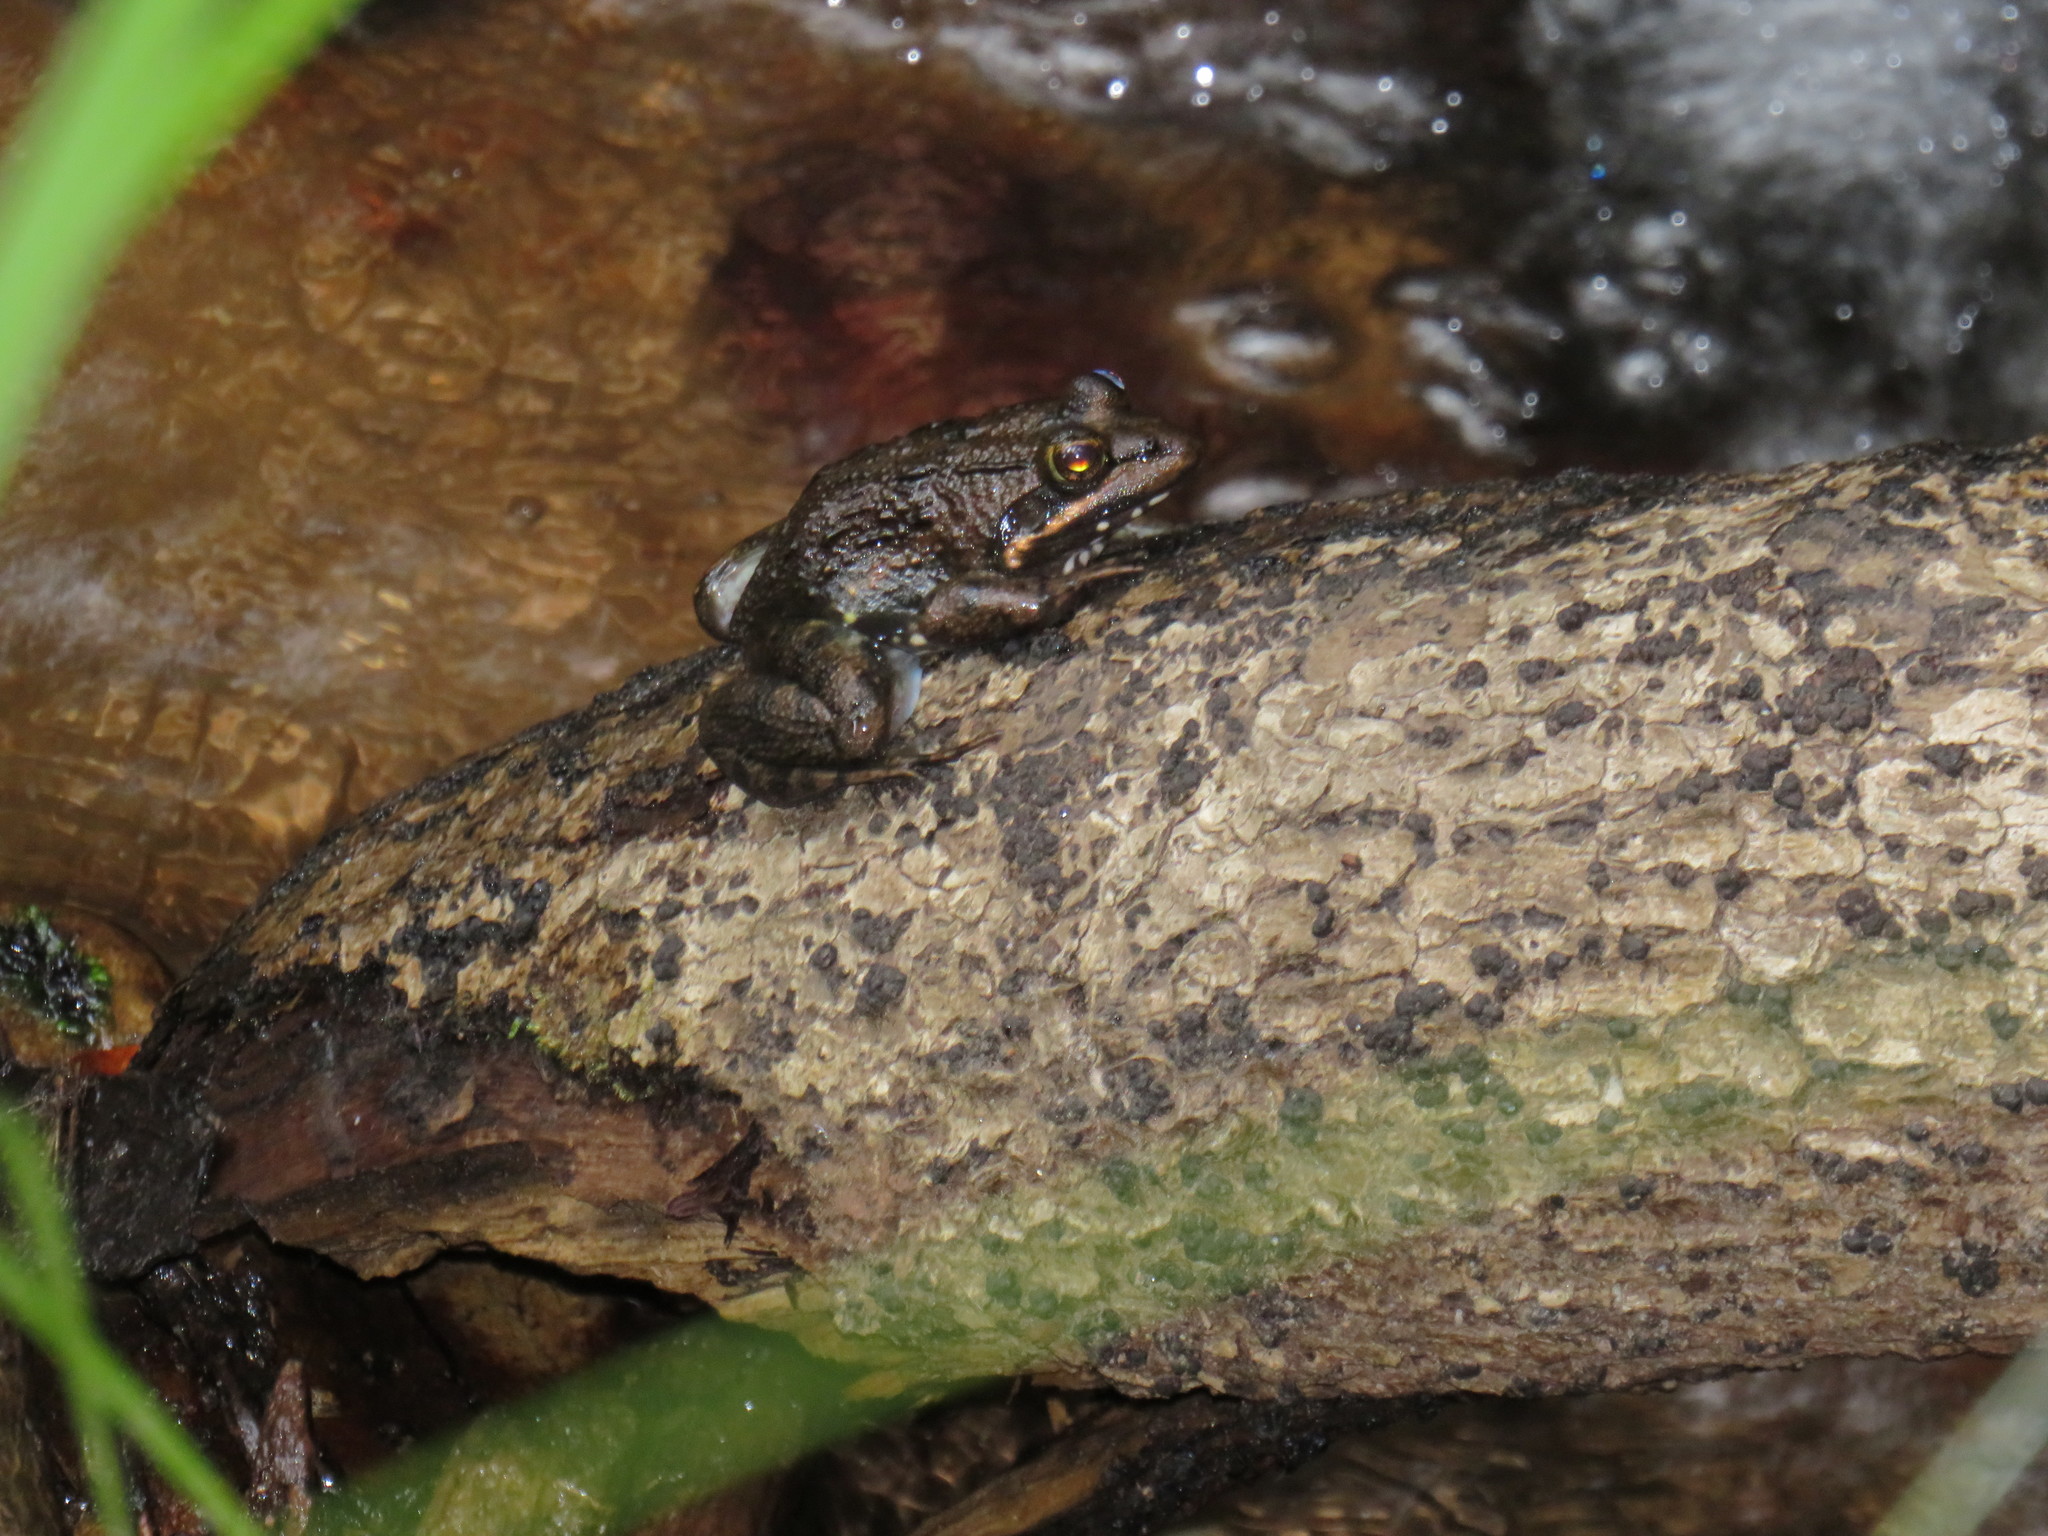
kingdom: Animalia
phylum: Chordata
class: Amphibia
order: Anura
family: Pyxicephalidae
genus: Amietia
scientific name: Amietia fuscigula
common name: Cape rana
